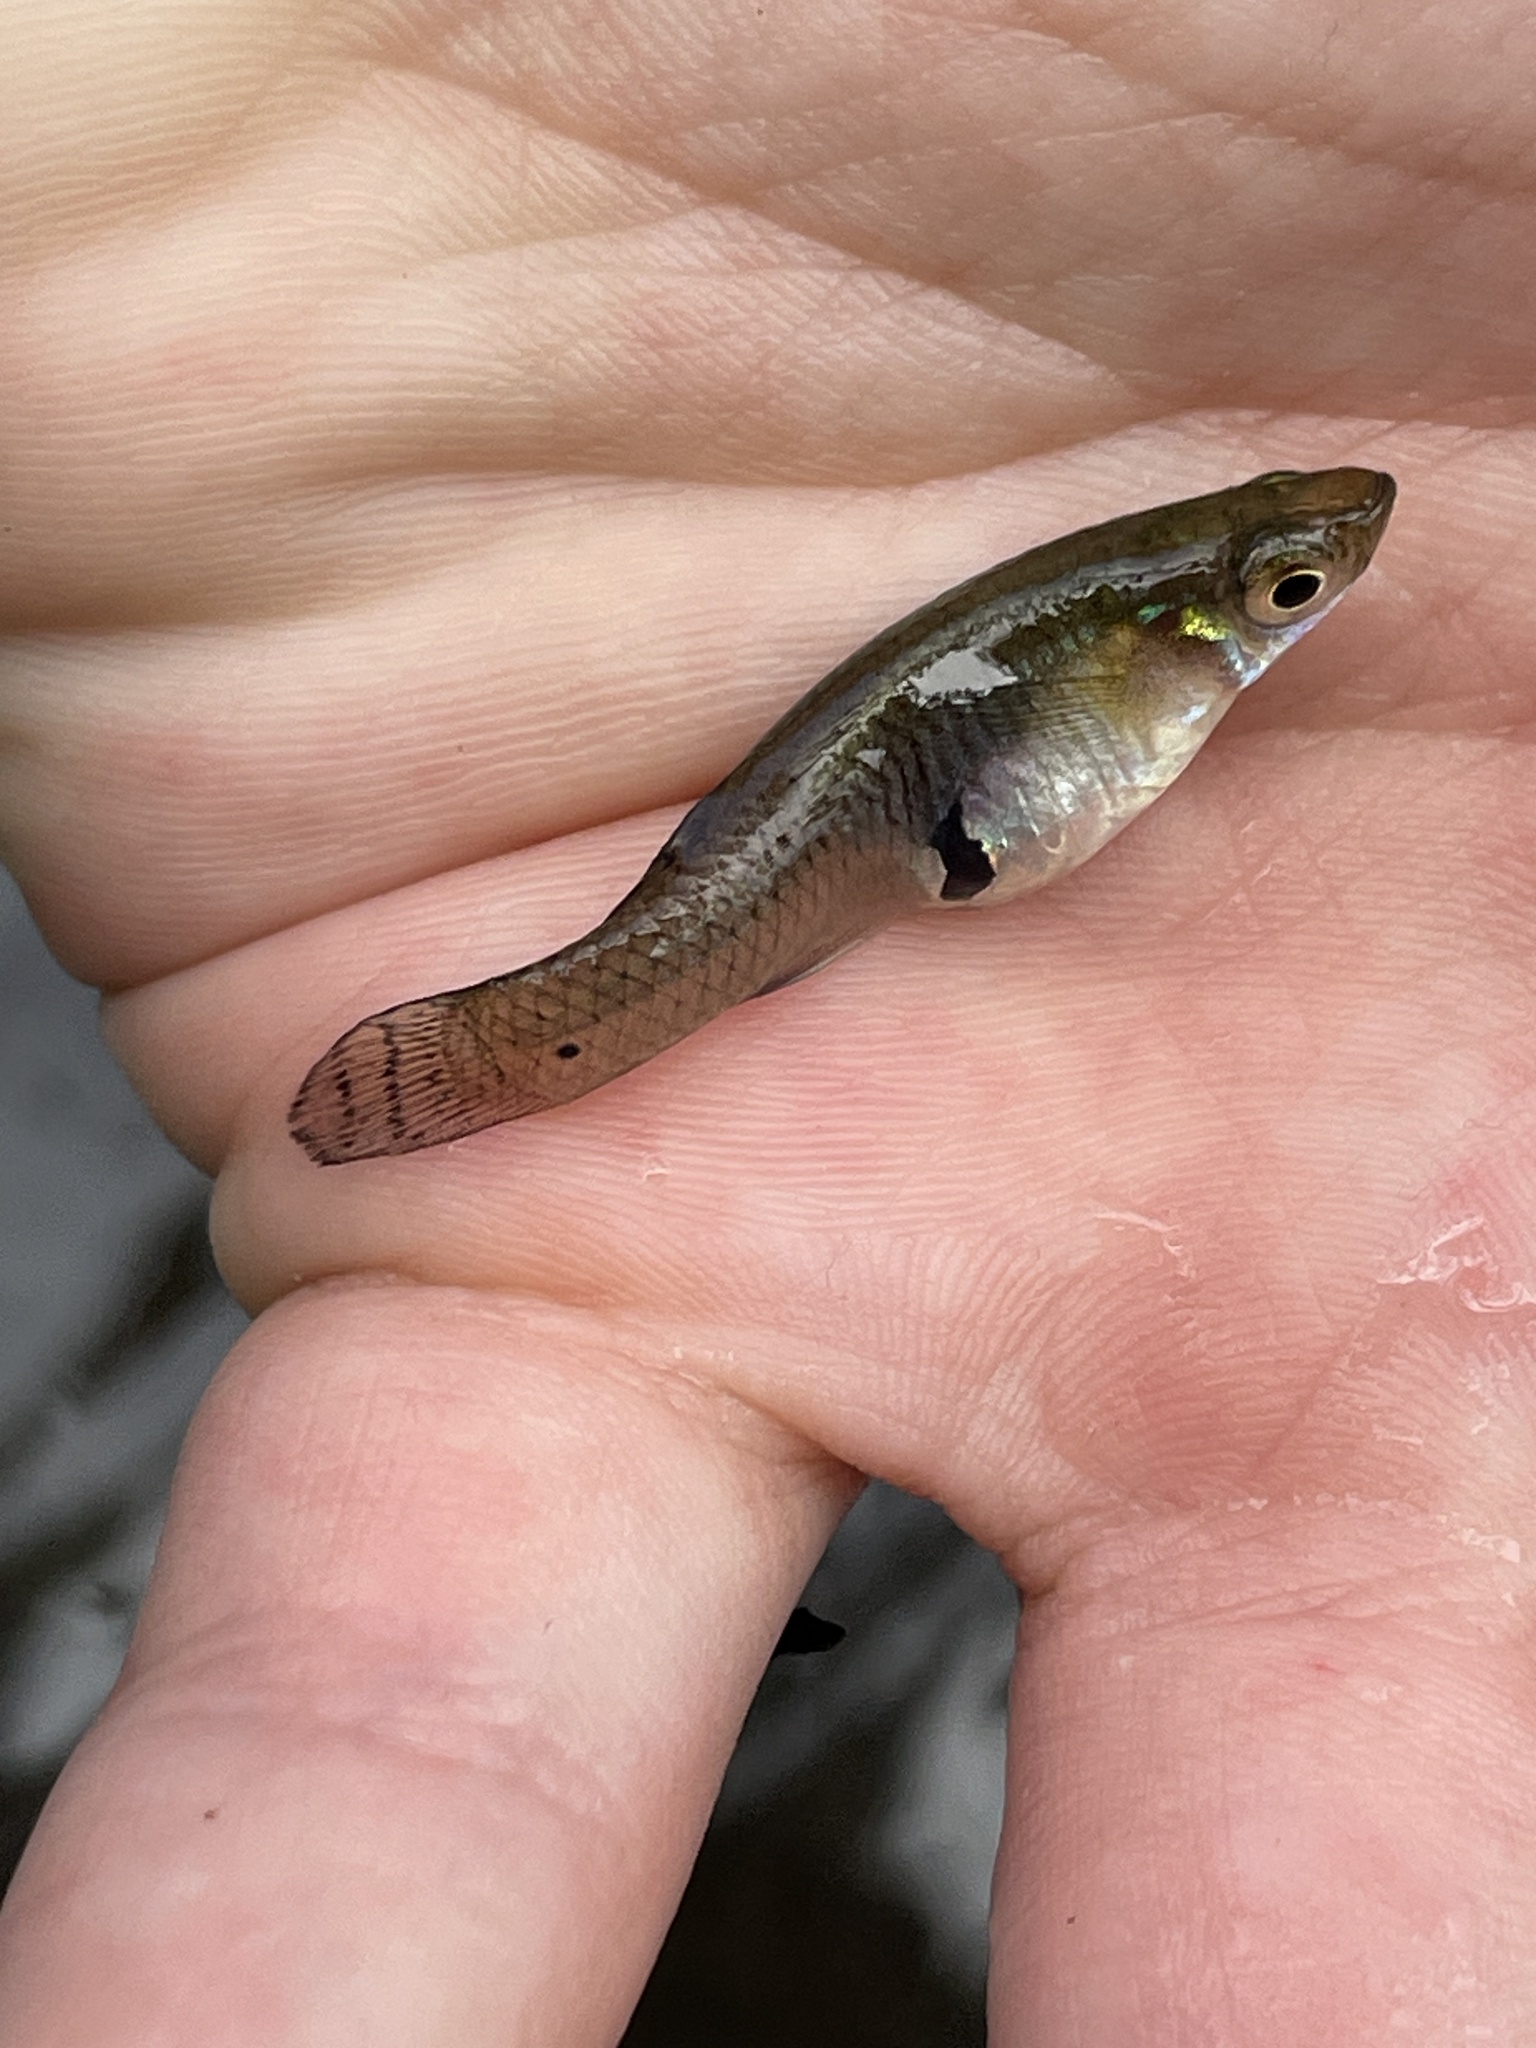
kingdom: Animalia
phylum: Chordata
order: Cyprinodontiformes
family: Poeciliidae
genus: Gambusia
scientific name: Gambusia holbrooki
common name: Eastern mosquitofish
